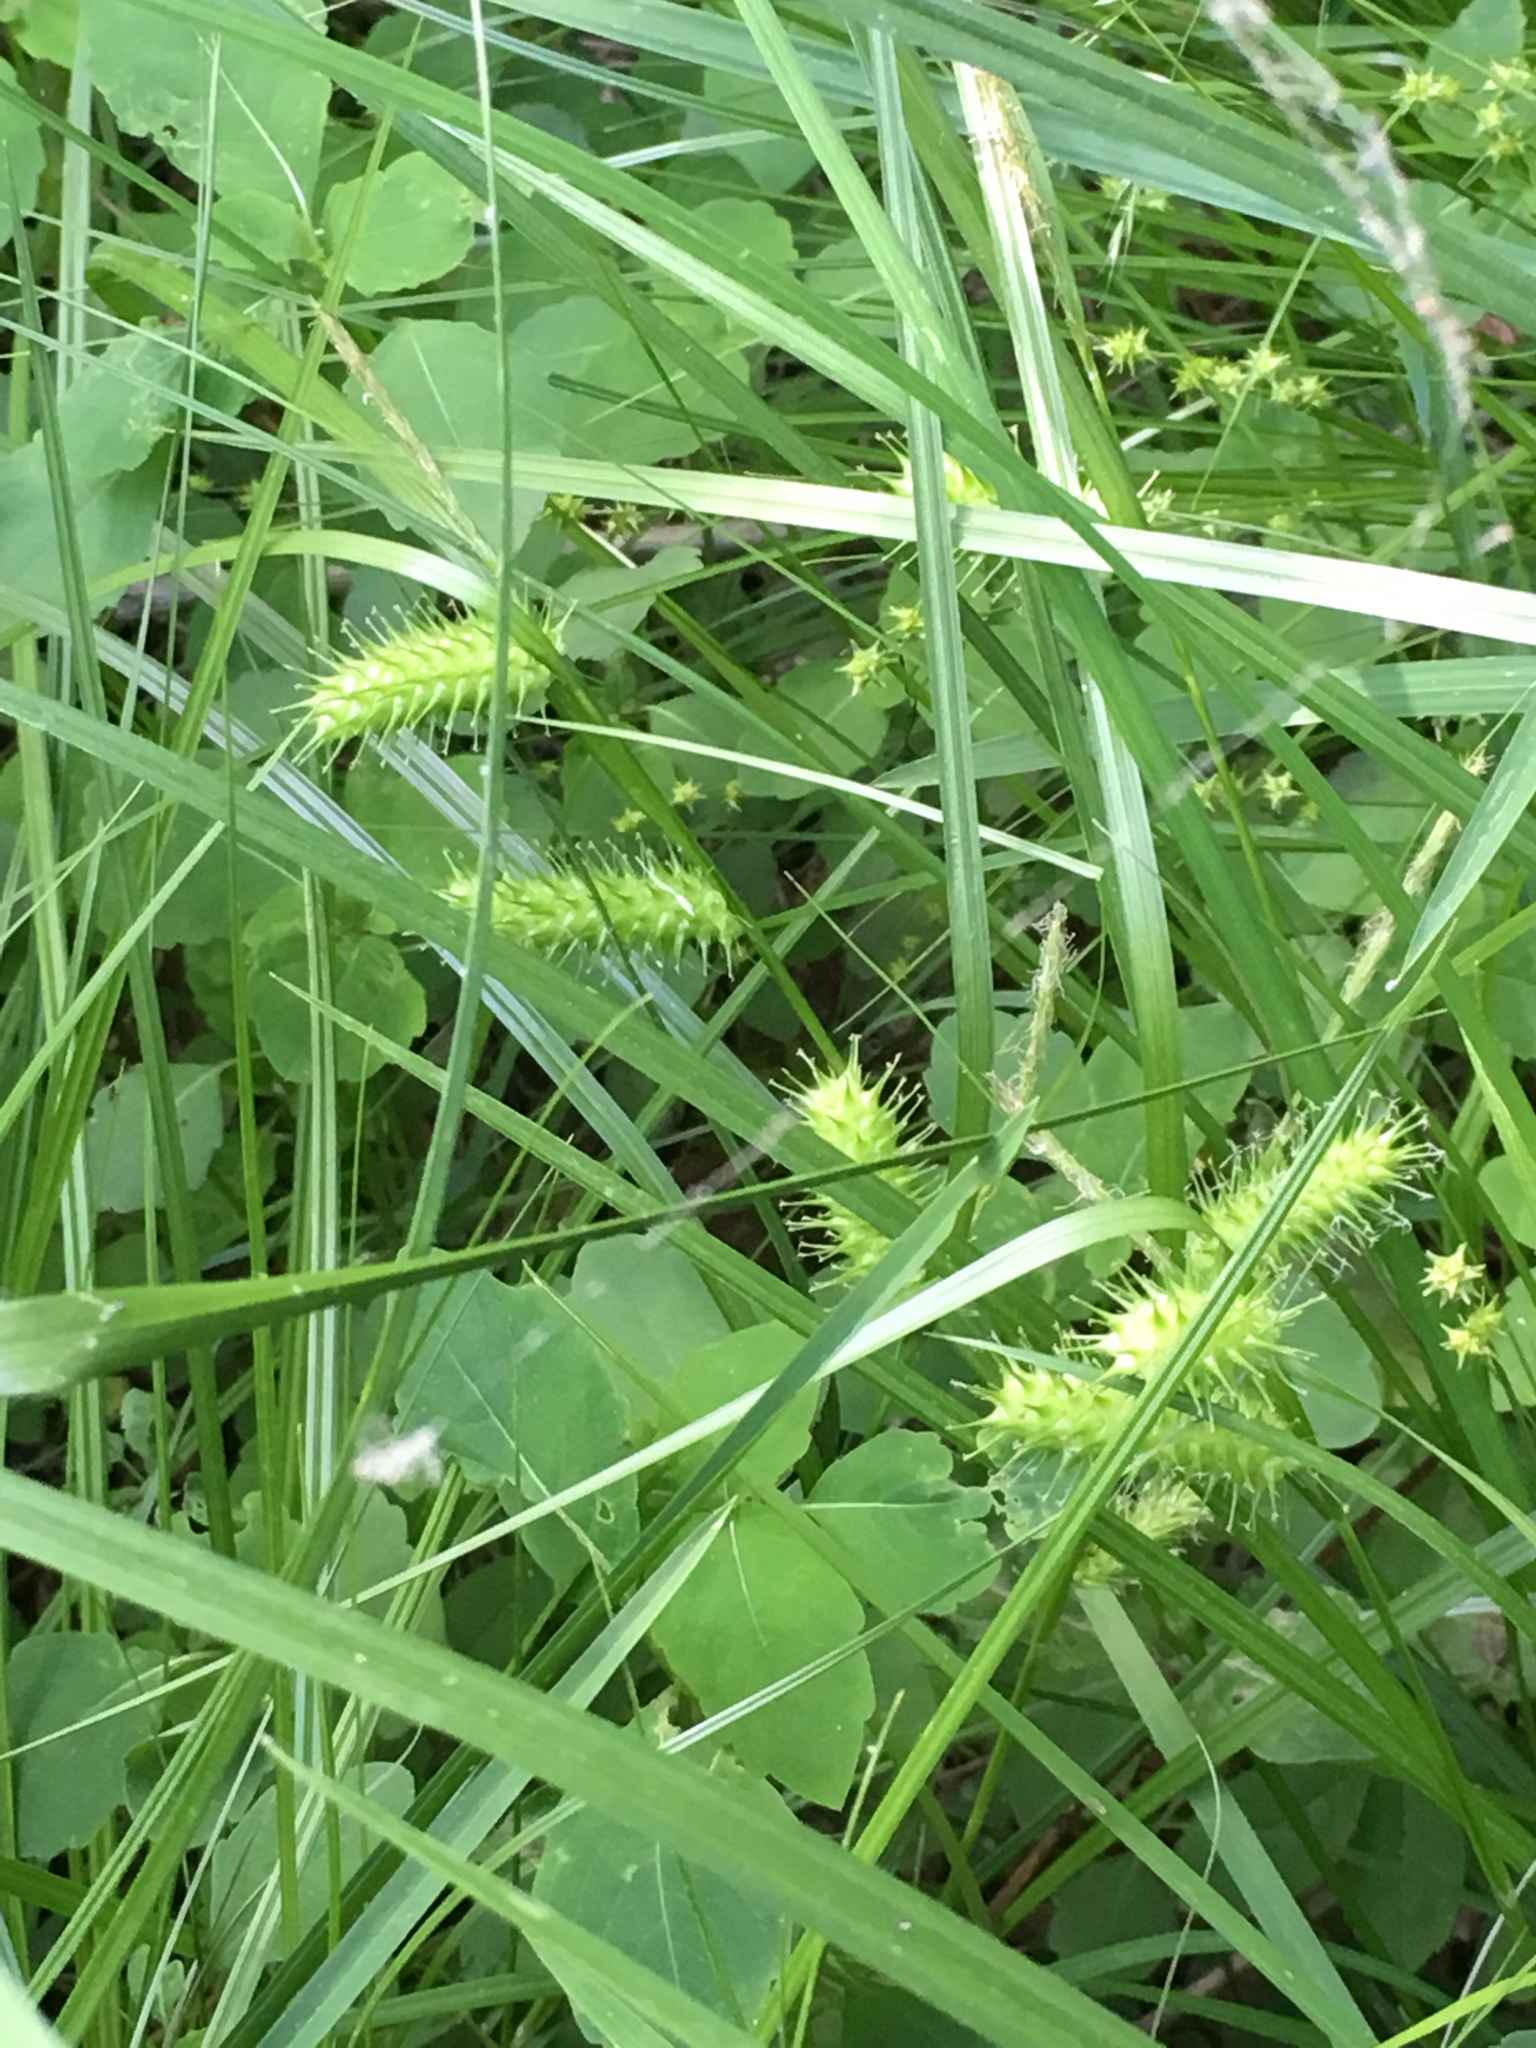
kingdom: Plantae
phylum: Tracheophyta
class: Liliopsida
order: Poales
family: Cyperaceae
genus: Carex
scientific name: Carex lurida
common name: Sallow sedge
